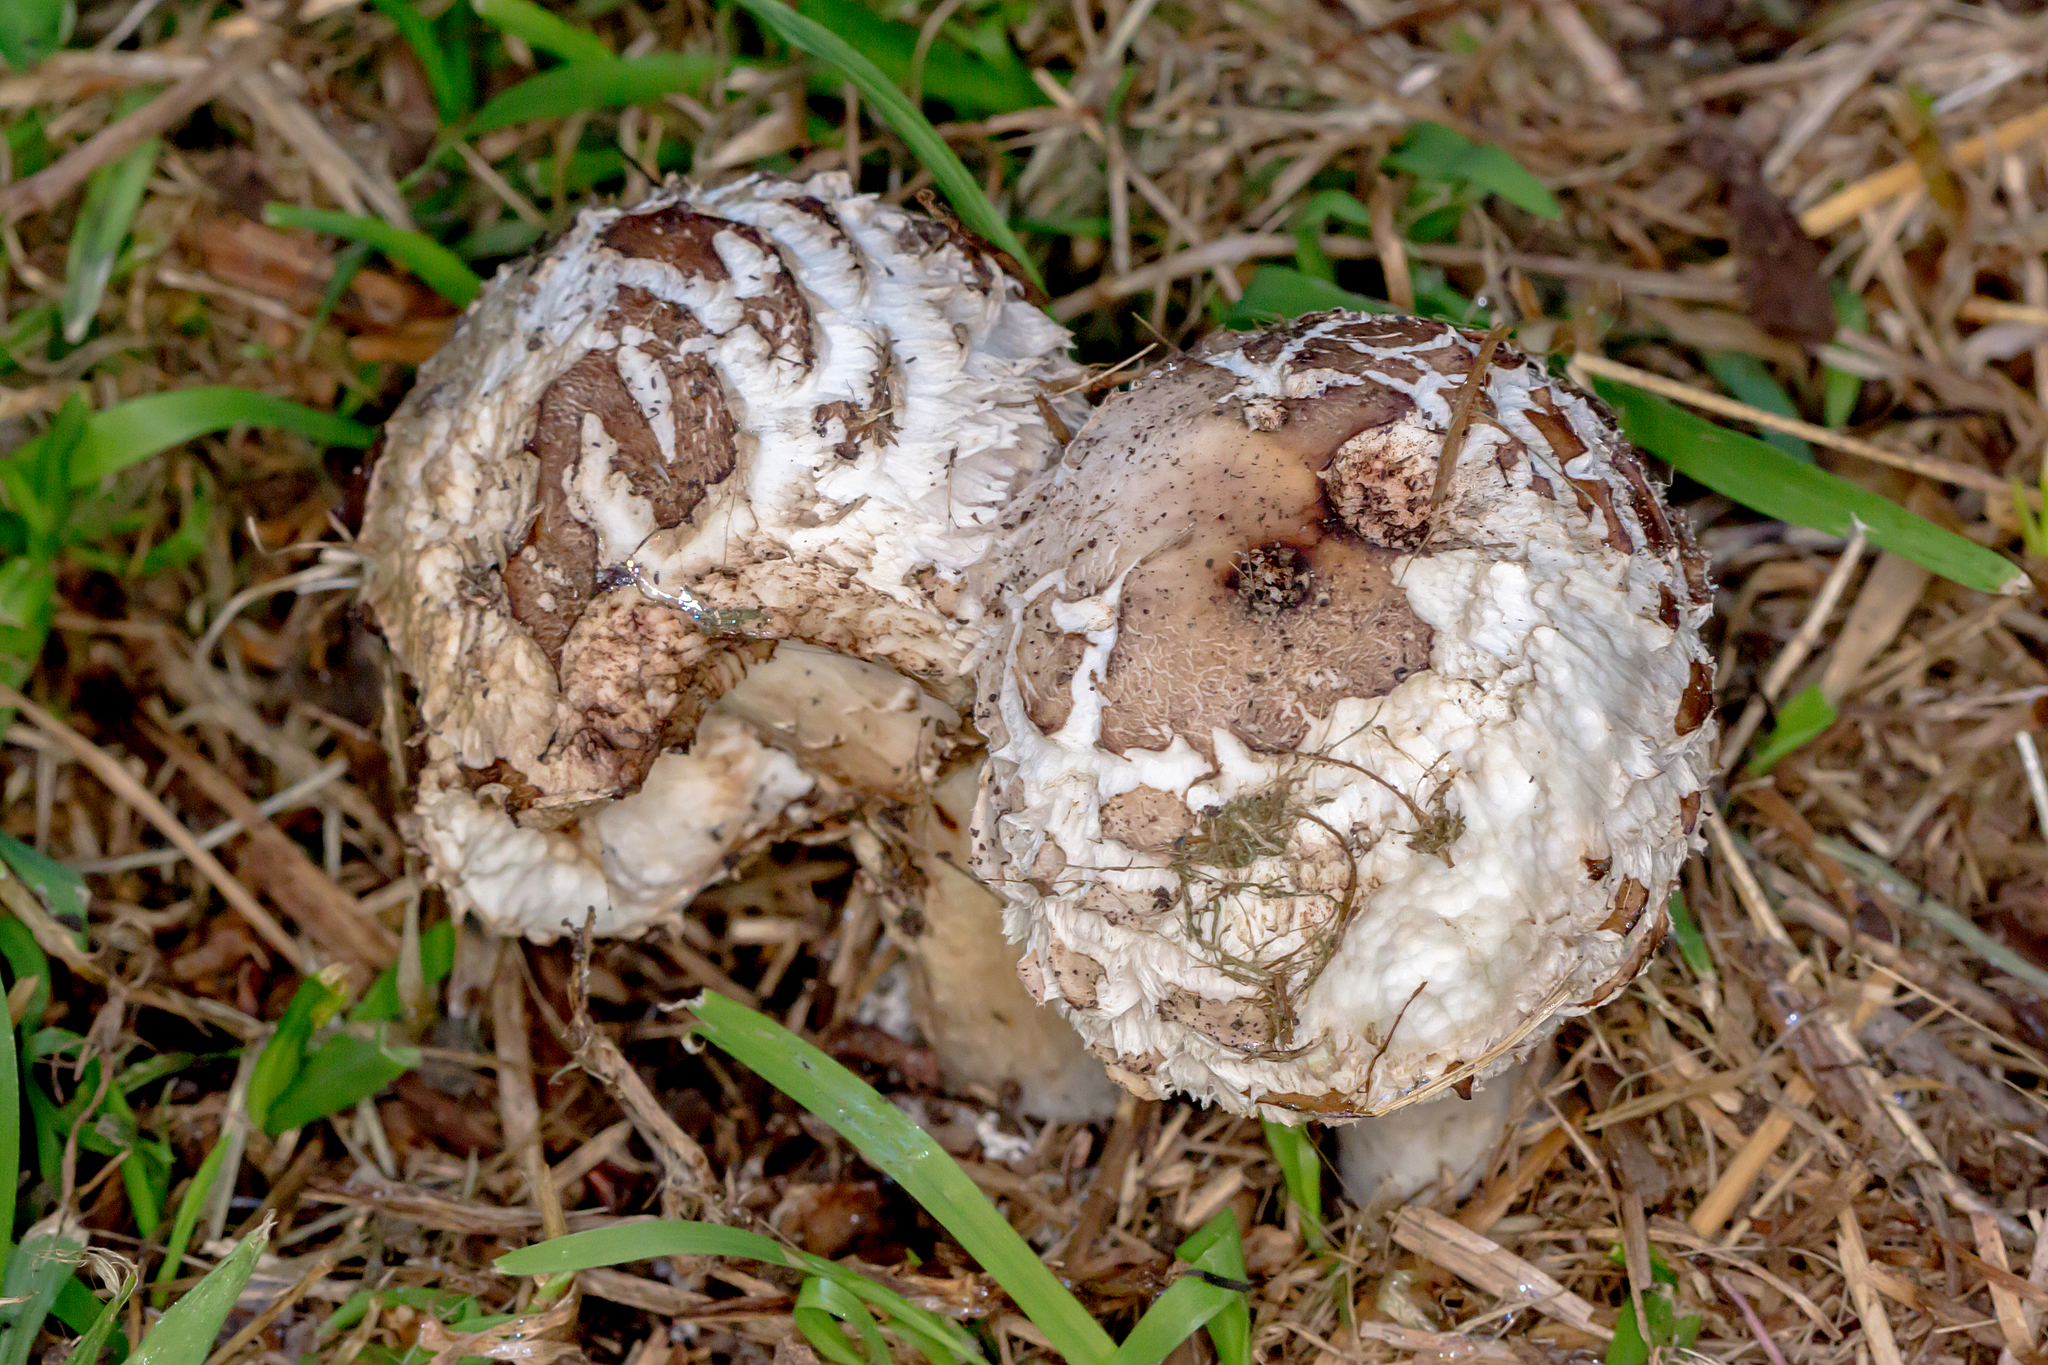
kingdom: Fungi
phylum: Basidiomycota
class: Agaricomycetes
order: Agaricales
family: Agaricaceae
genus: Chlorophyllum
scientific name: Chlorophyllum brunneum
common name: Brown parasol
